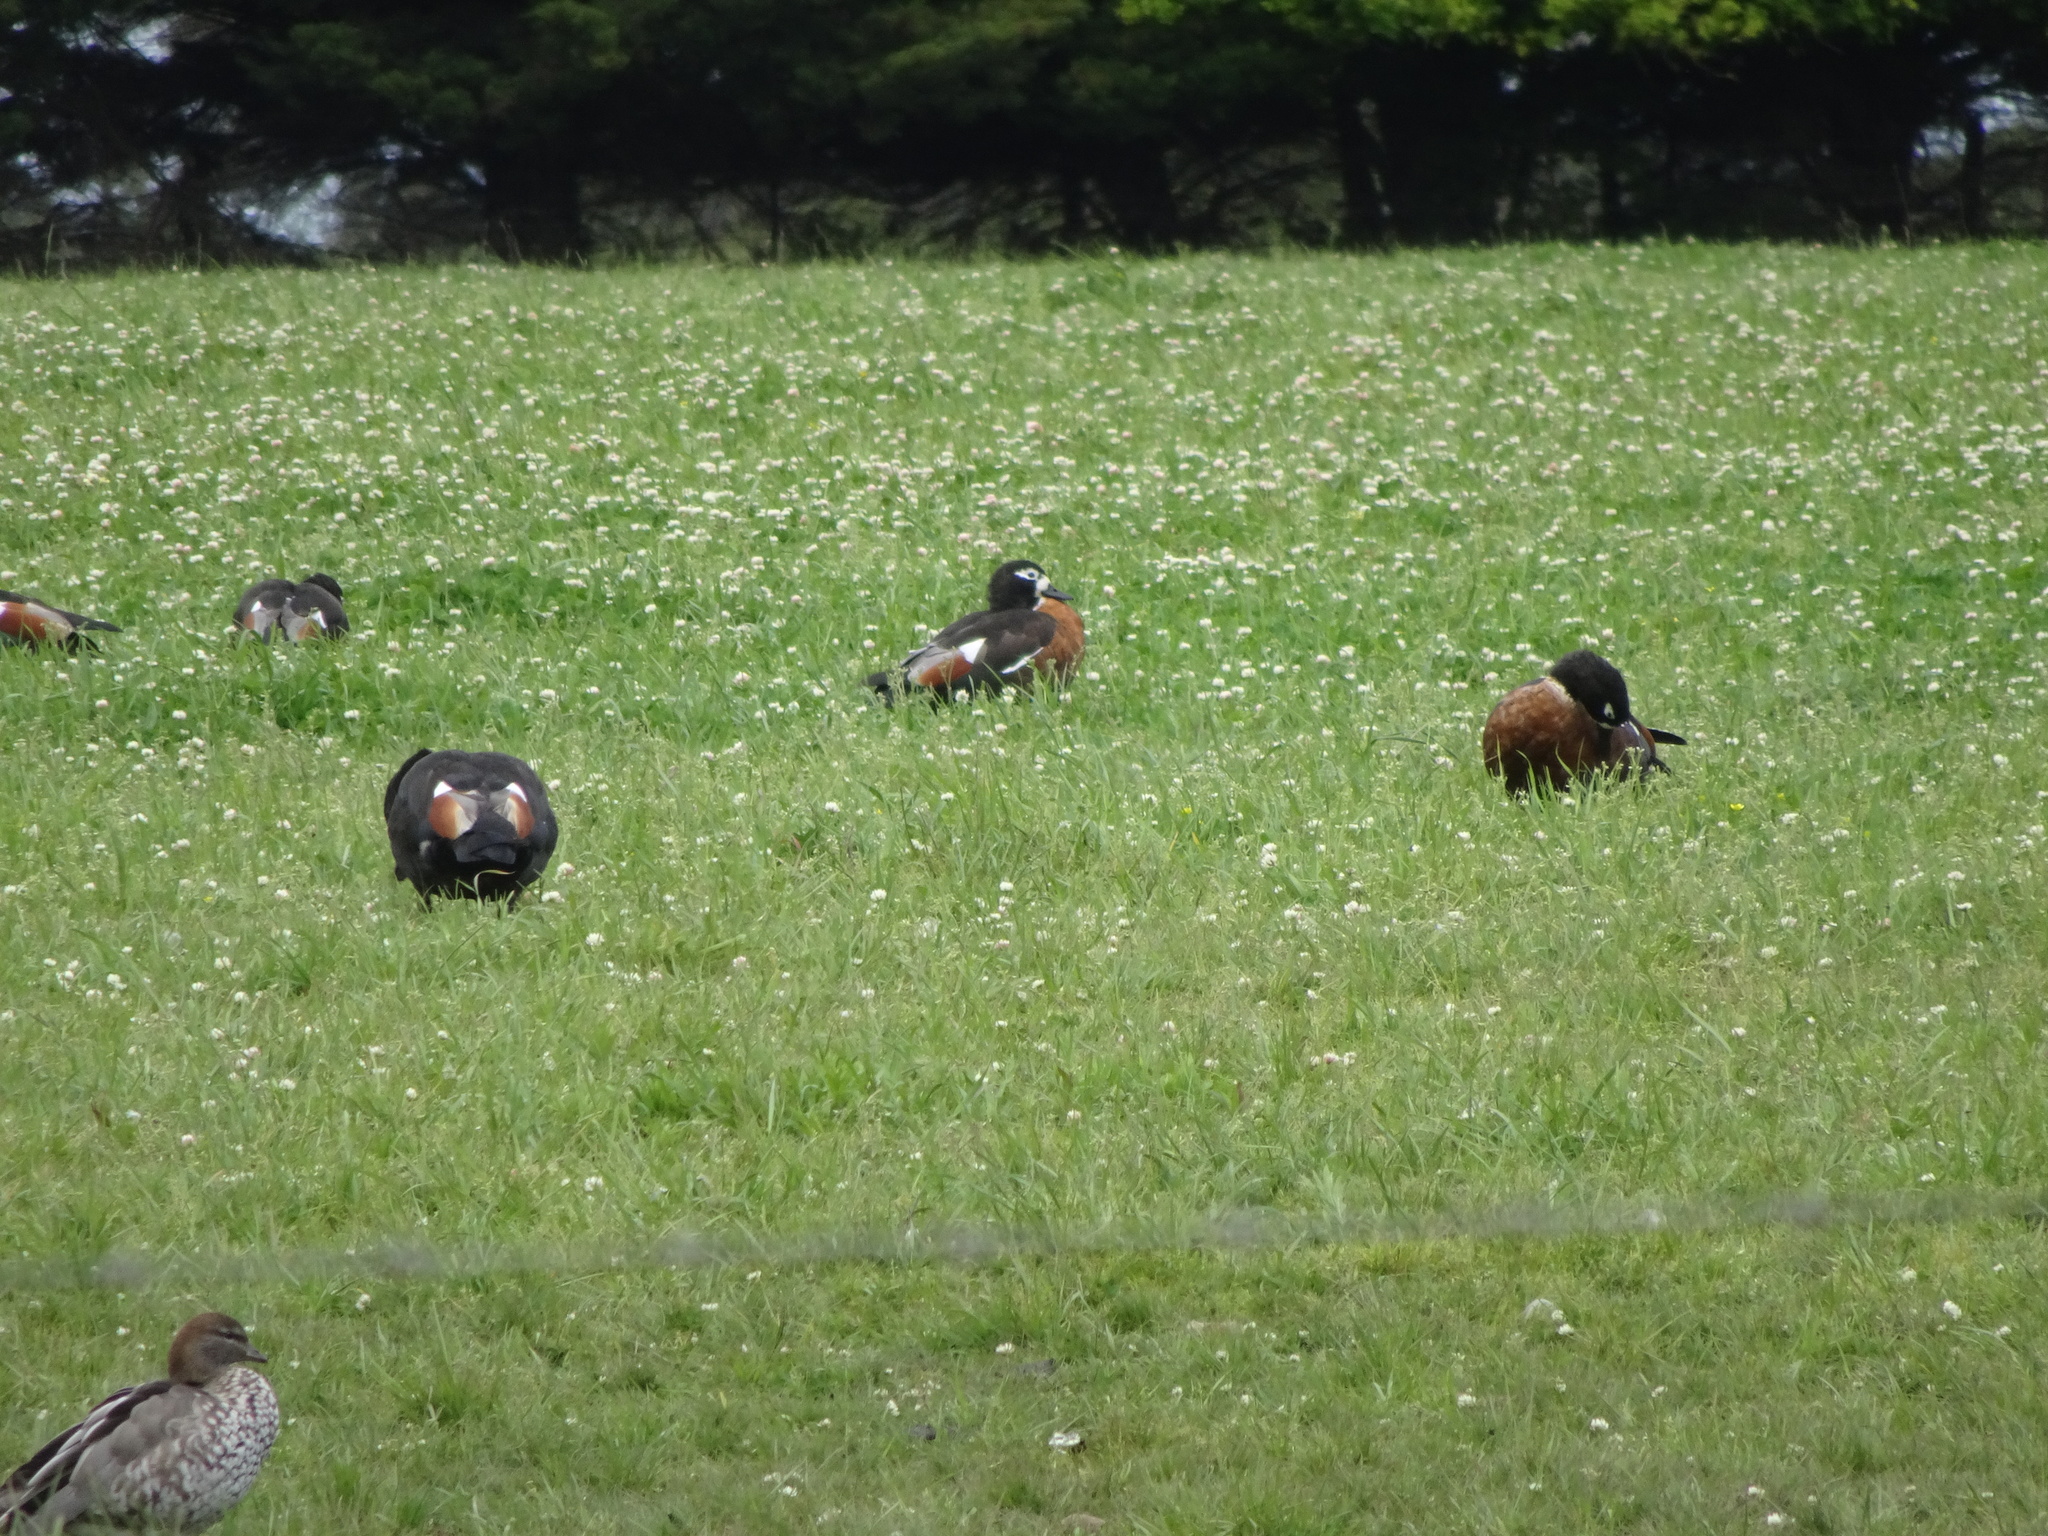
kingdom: Animalia
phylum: Chordata
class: Aves
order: Anseriformes
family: Anatidae
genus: Tadorna
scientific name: Tadorna tadornoides
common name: Australian shelduck
